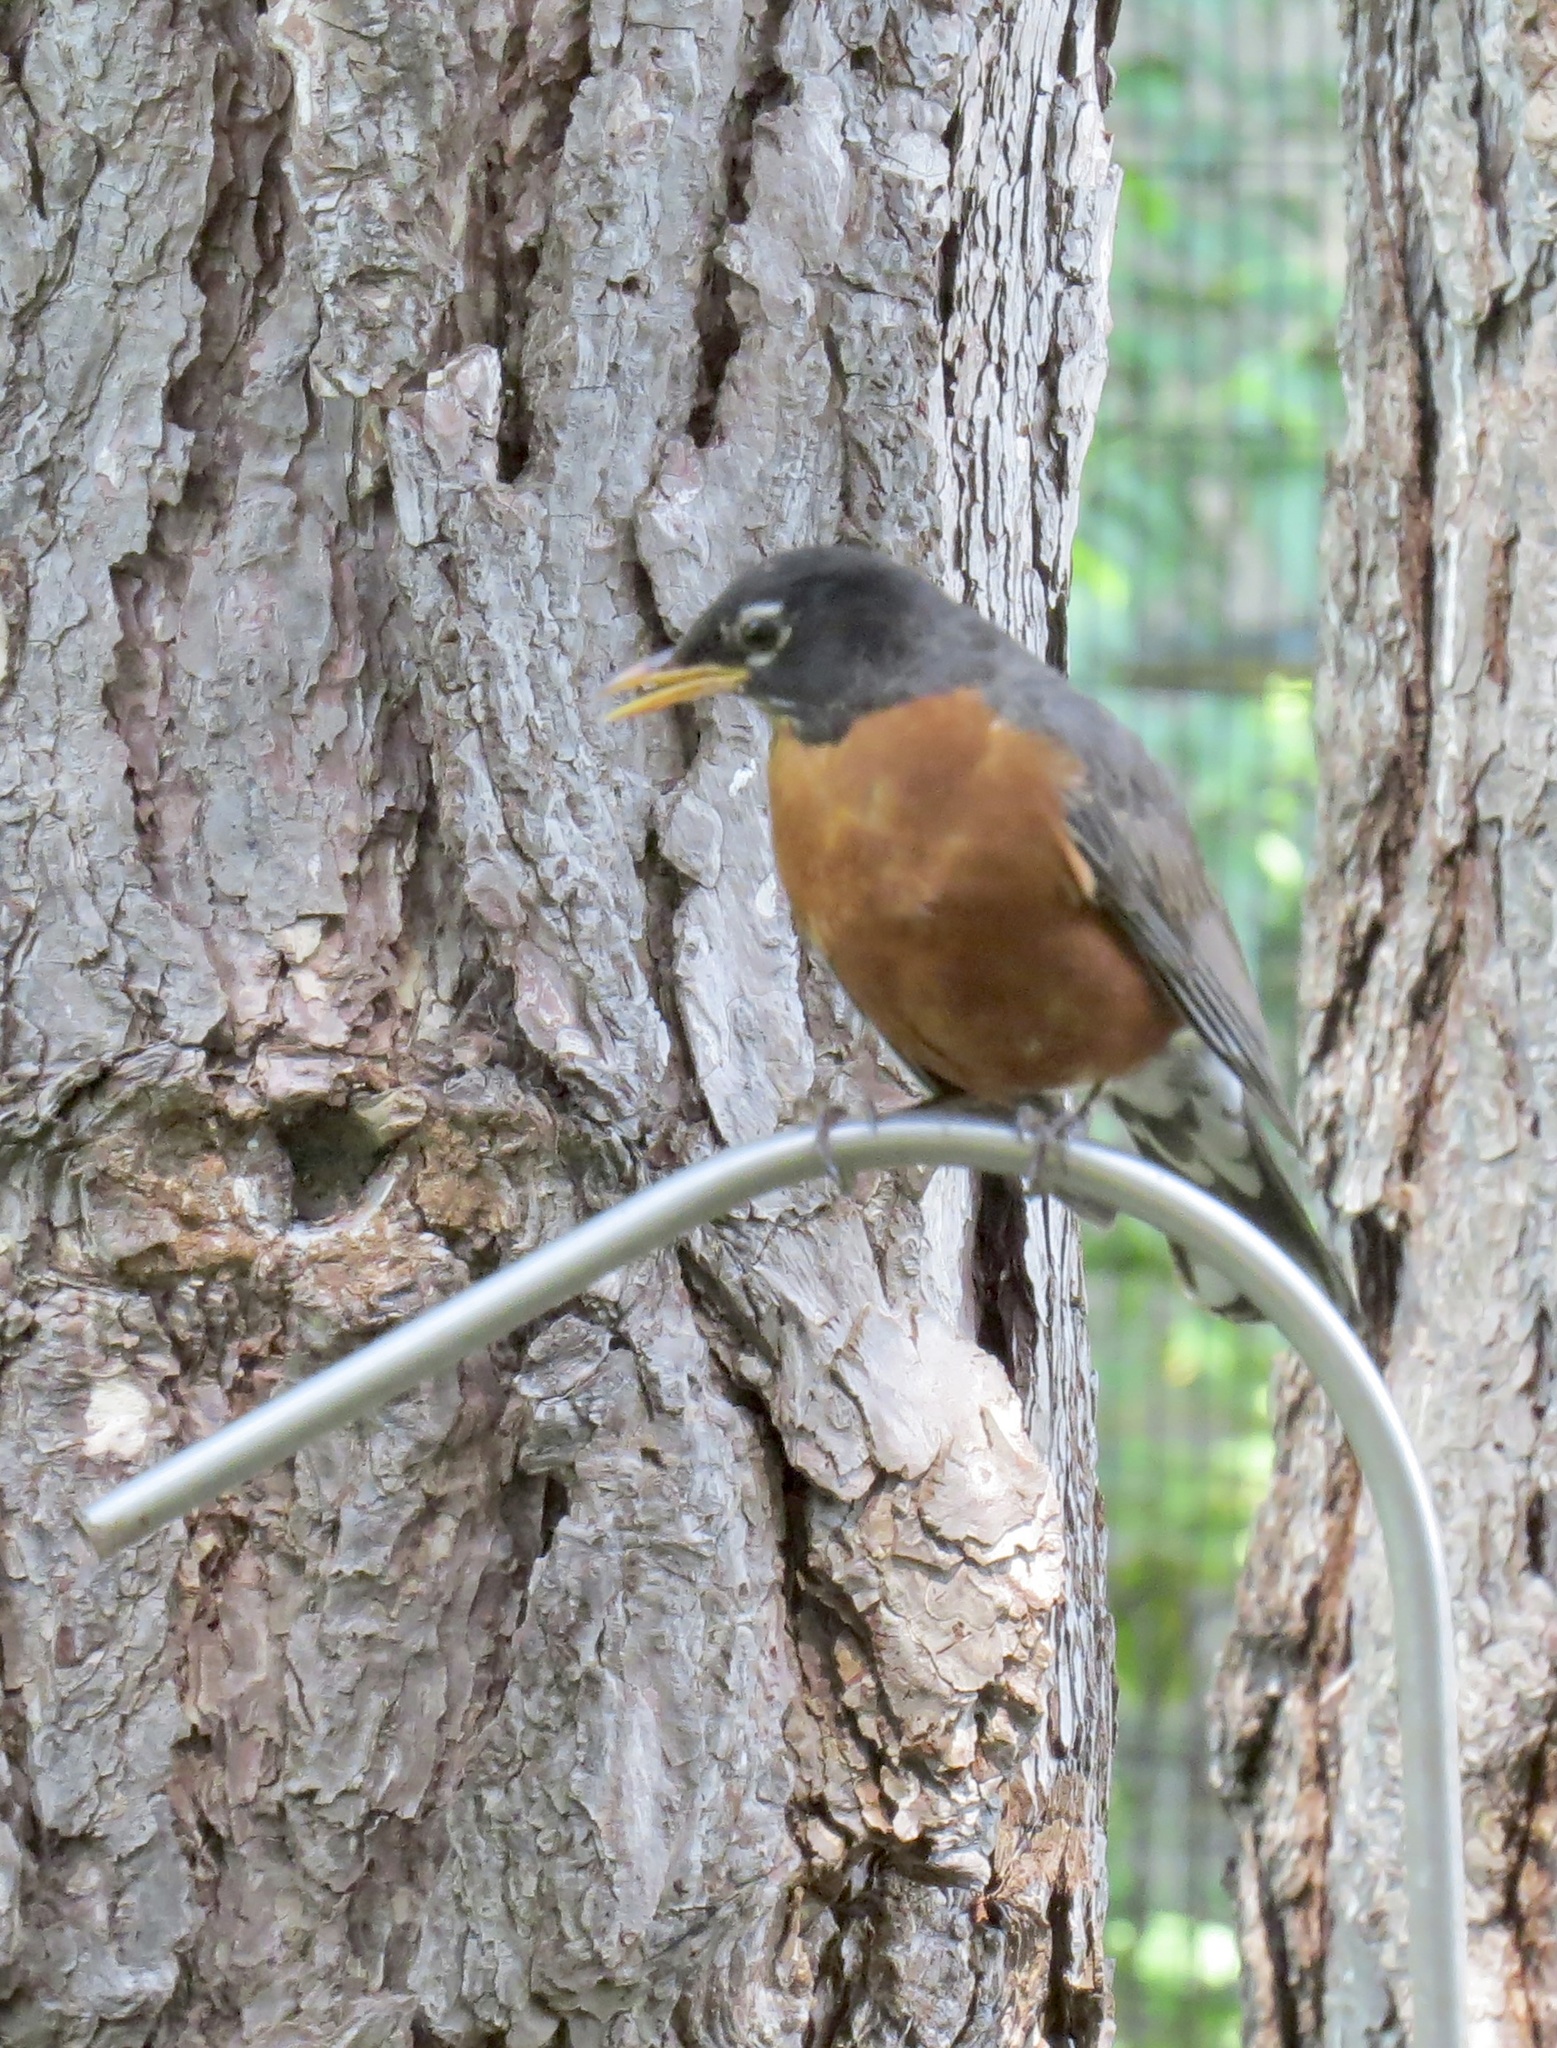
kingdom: Animalia
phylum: Chordata
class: Aves
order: Passeriformes
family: Turdidae
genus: Turdus
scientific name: Turdus migratorius
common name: American robin
